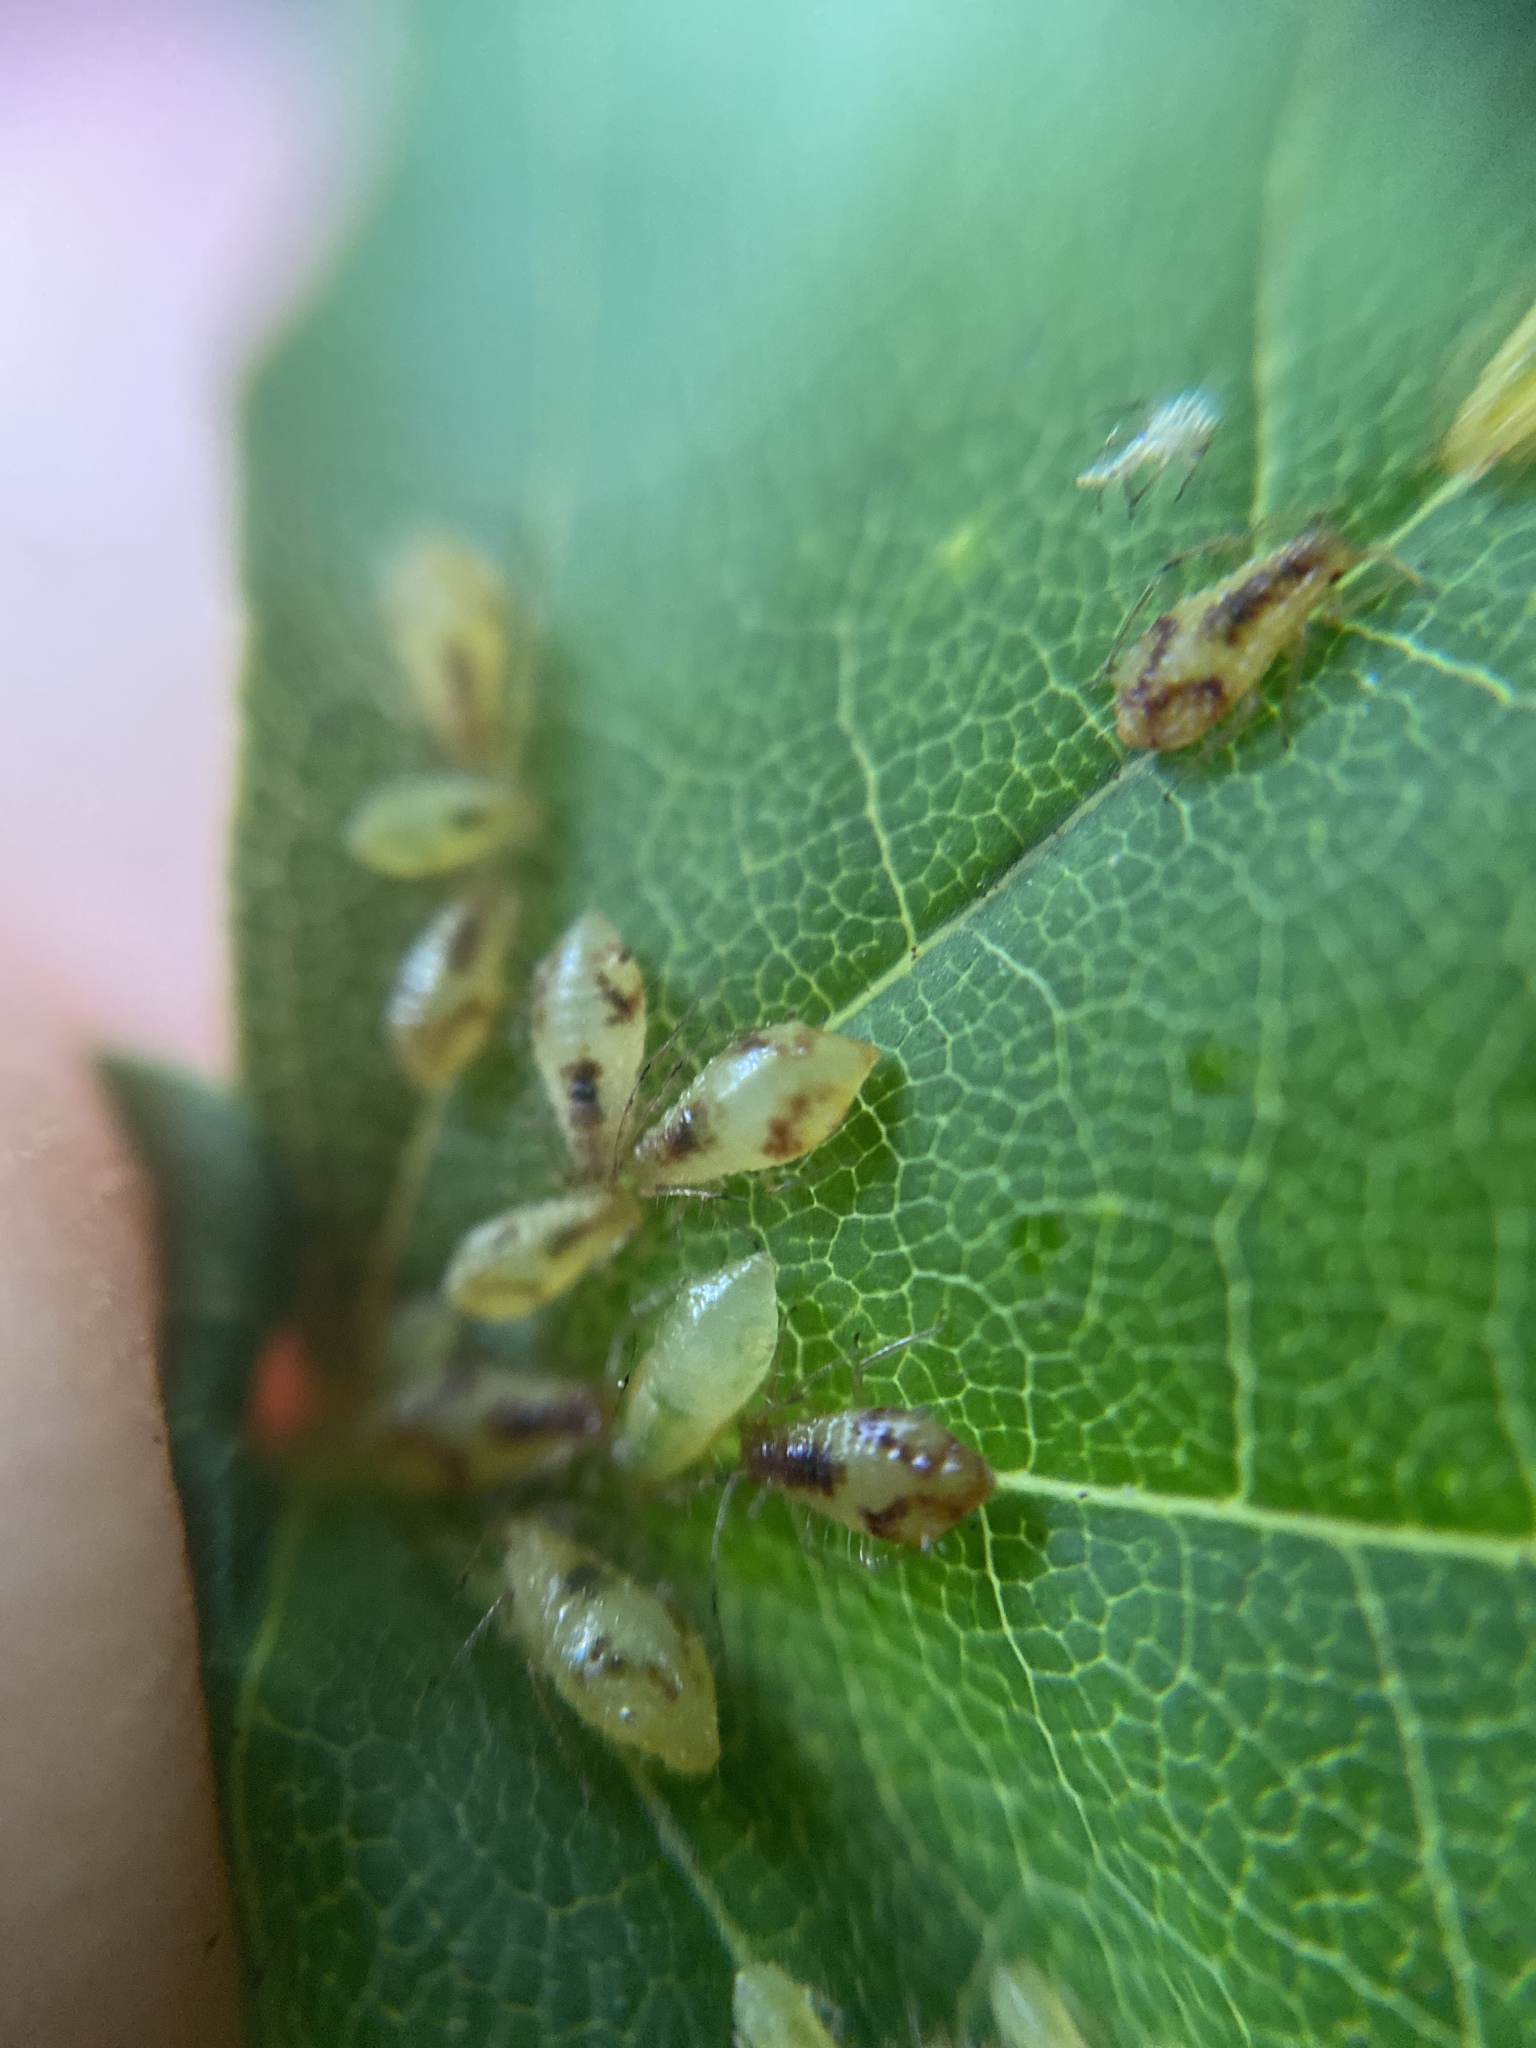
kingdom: Animalia
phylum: Arthropoda
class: Insecta
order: Hemiptera
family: Aphididae
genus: Periphyllus
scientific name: Periphyllus lyropictus
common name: Norway maple aphid
